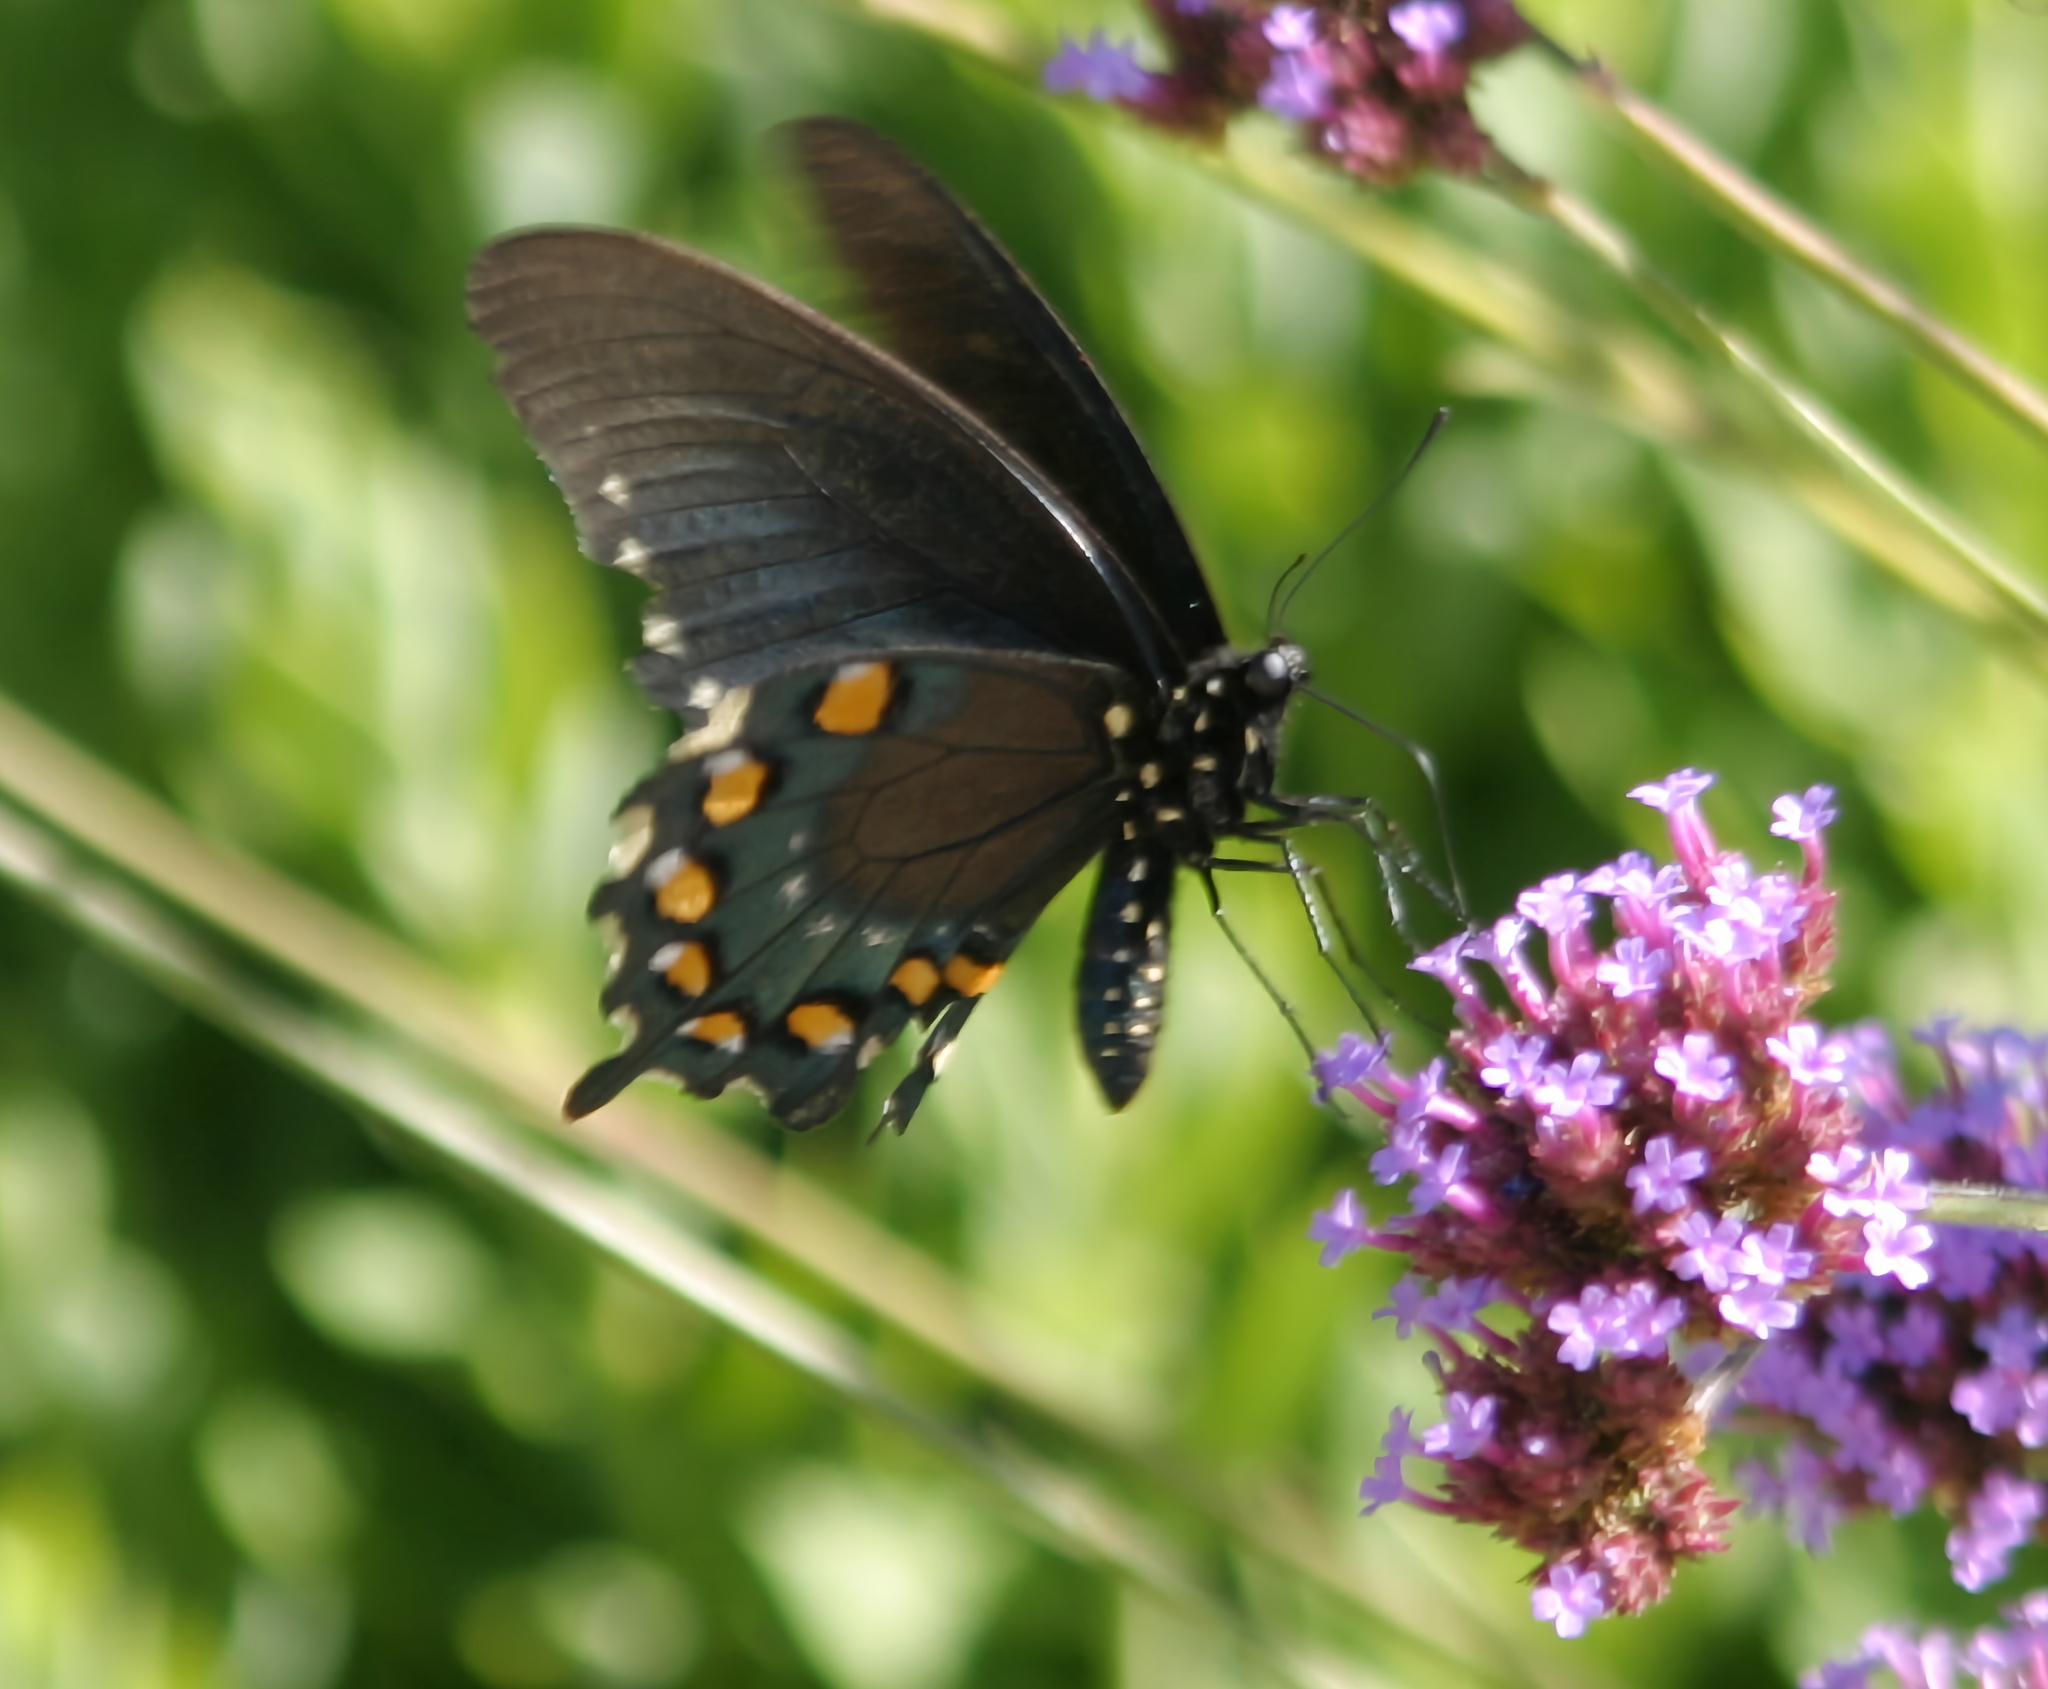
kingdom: Animalia
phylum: Arthropoda
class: Insecta
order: Lepidoptera
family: Papilionidae
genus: Battus
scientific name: Battus philenor
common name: Pipevine swallowtail
